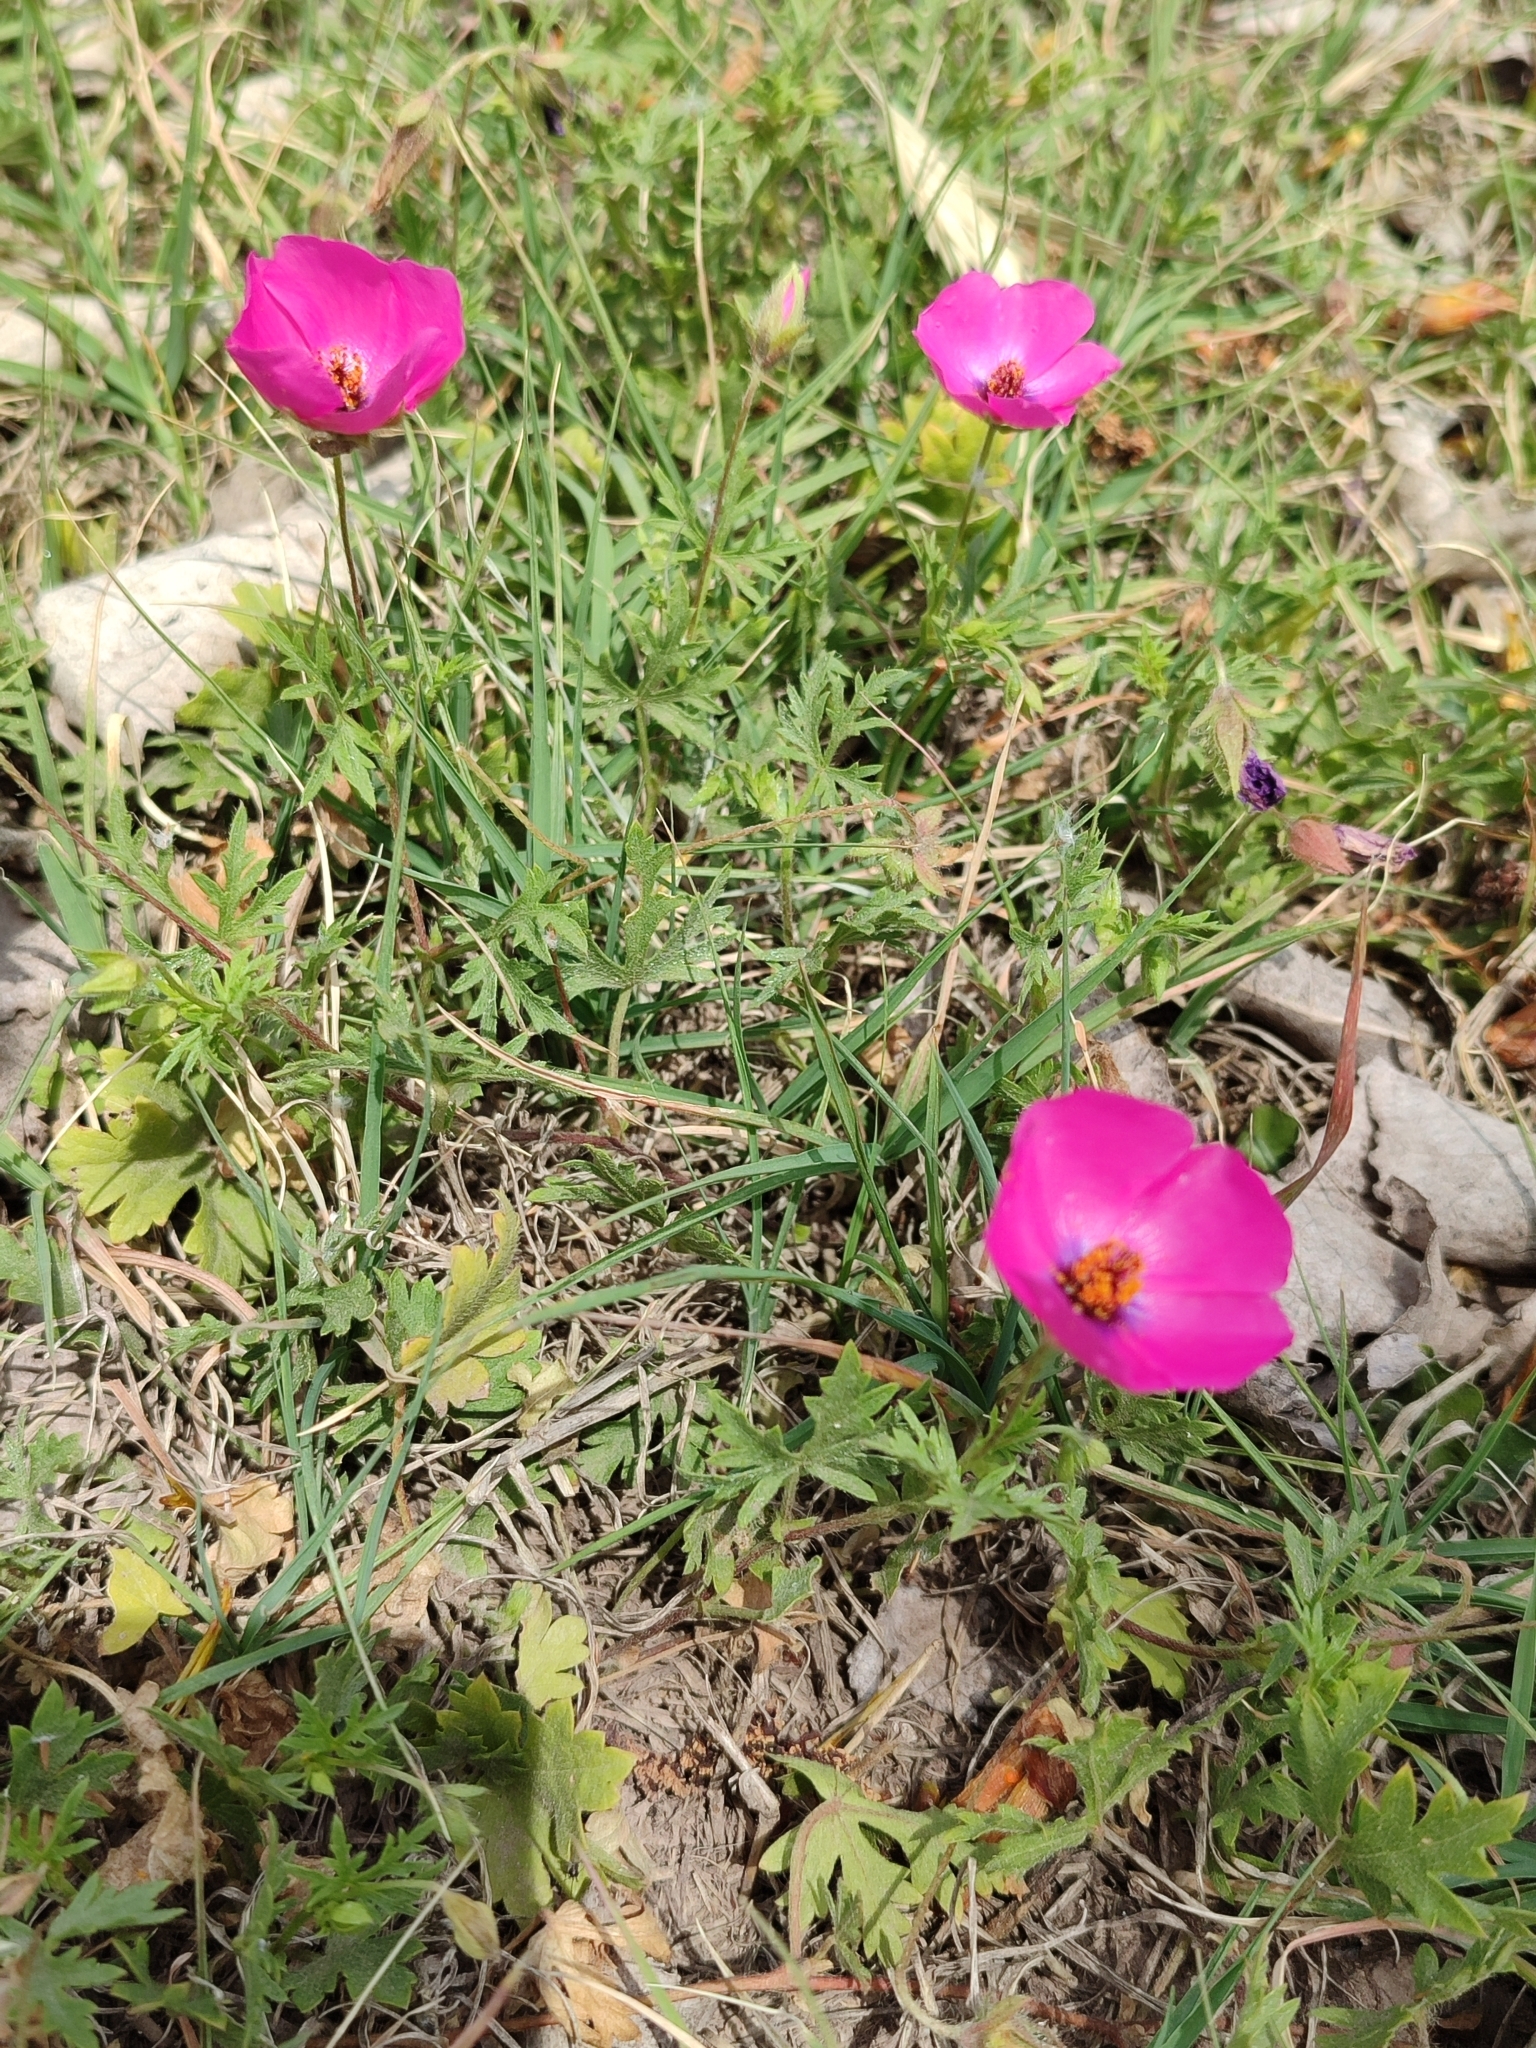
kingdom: Plantae
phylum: Tracheophyta
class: Magnoliopsida
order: Malvales
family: Malvaceae
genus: Modiolastrum
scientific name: Modiolastrum gilliesii
